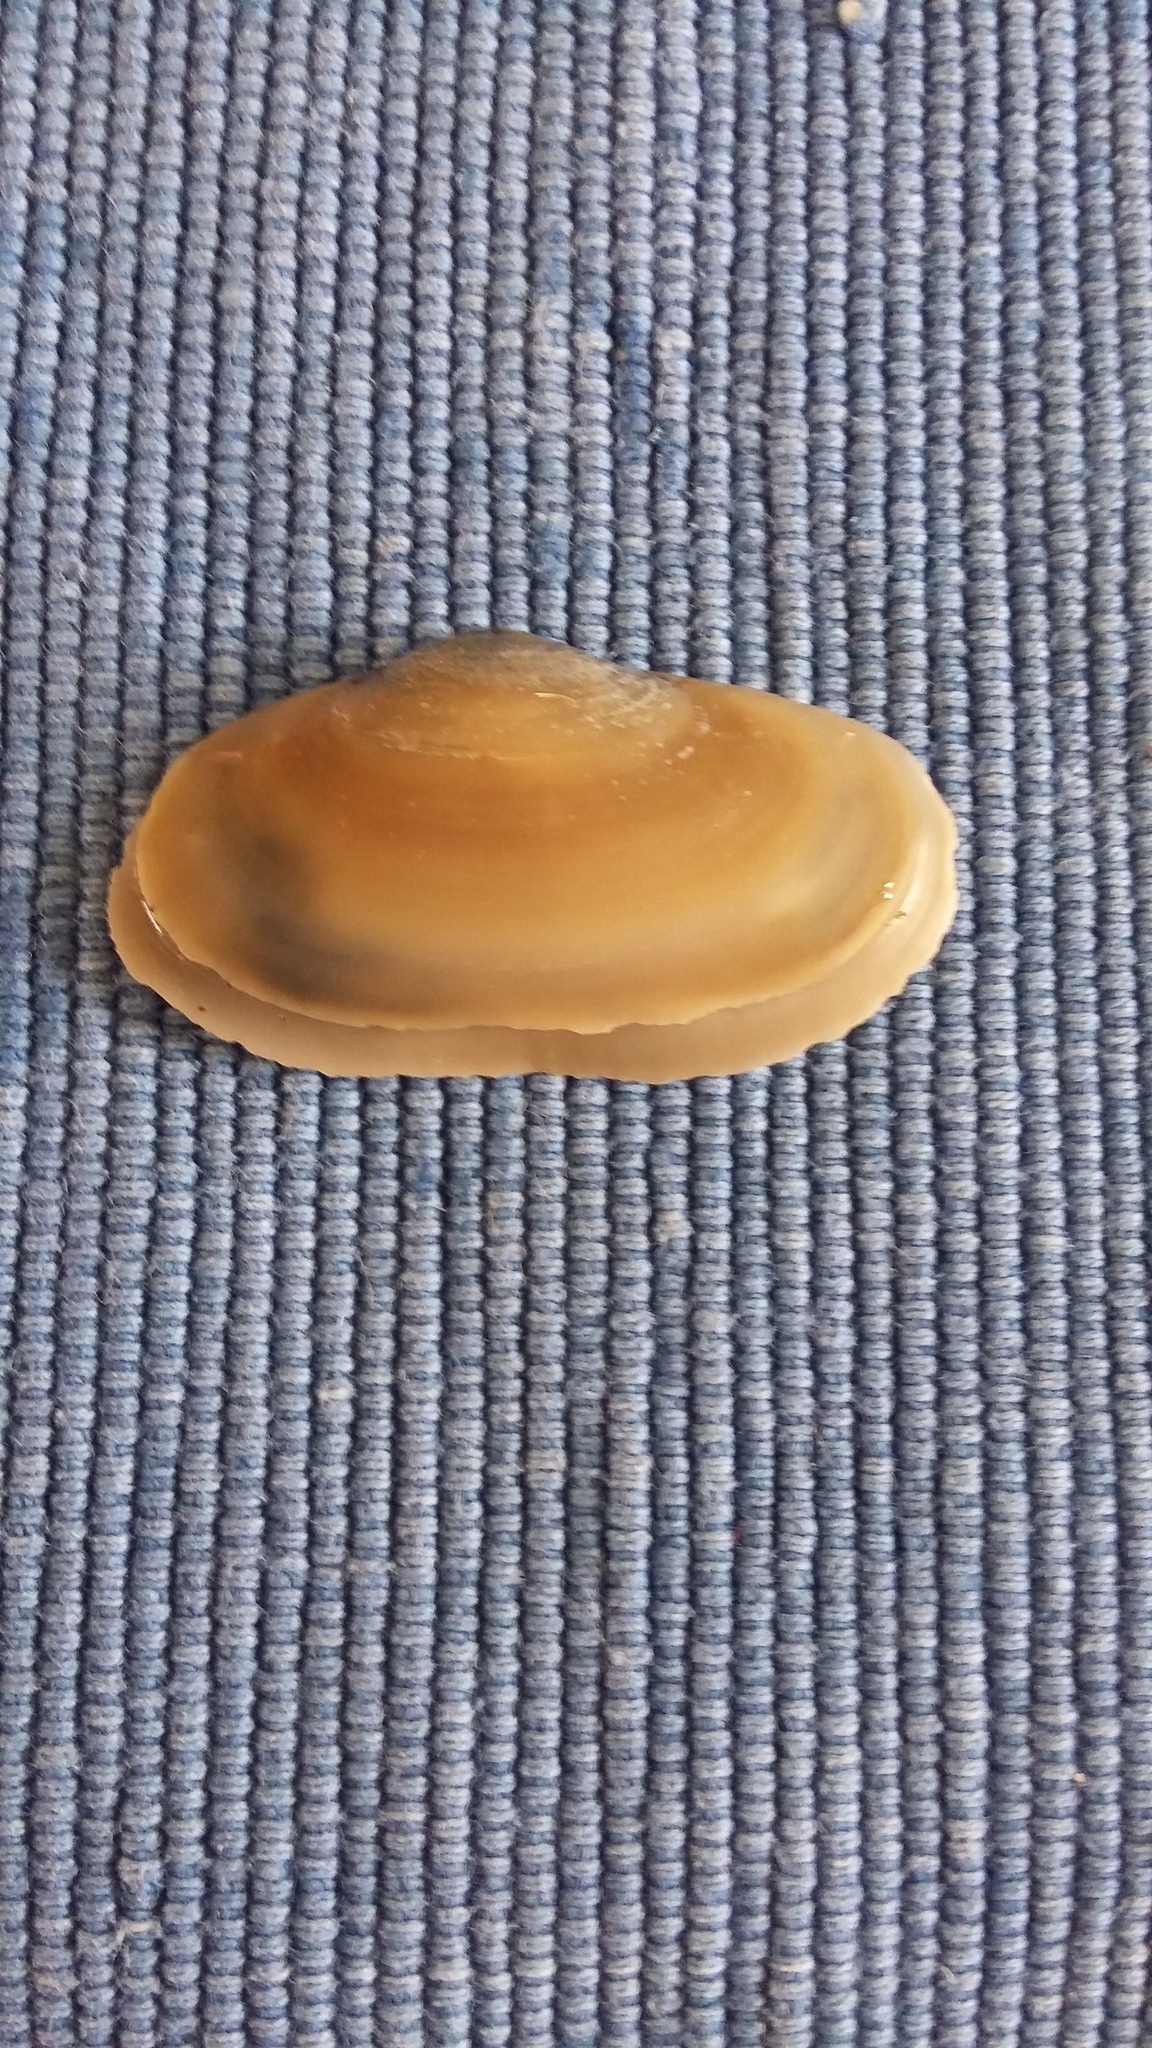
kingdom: Animalia
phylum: Mollusca
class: Bivalvia
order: Venerida
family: Mesodesmatidae
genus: Paphies
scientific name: Paphies australis
